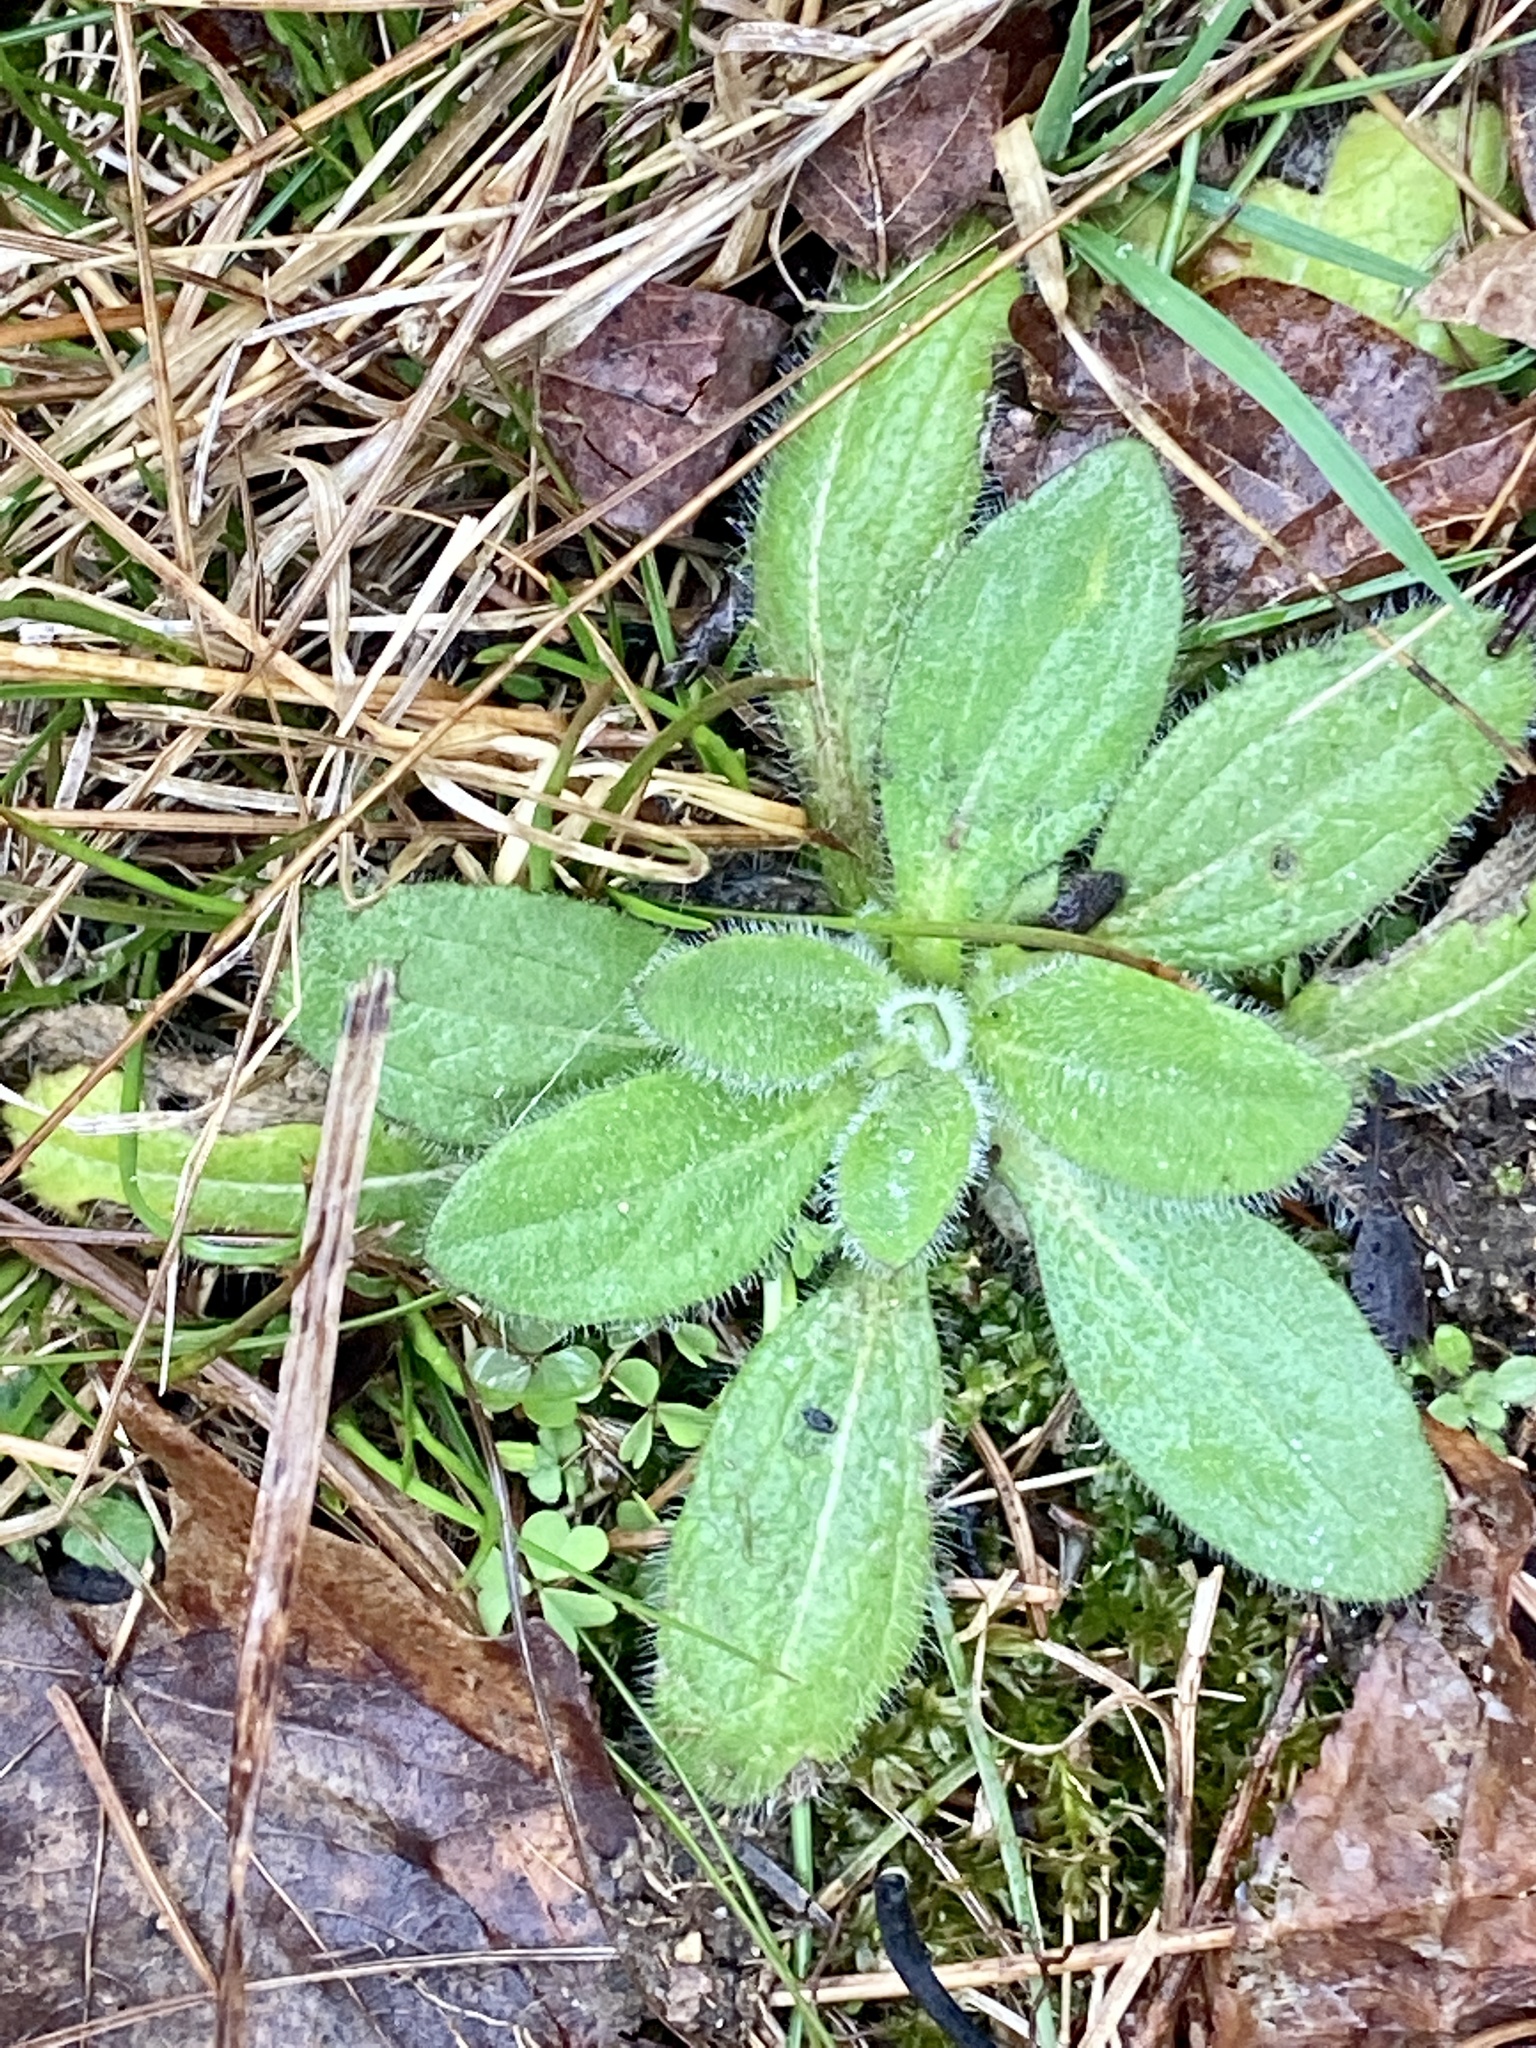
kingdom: Plantae
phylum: Tracheophyta
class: Magnoliopsida
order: Asterales
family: Asteraceae
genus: Rudbeckia
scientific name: Rudbeckia hirta
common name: Black-eyed-susan
